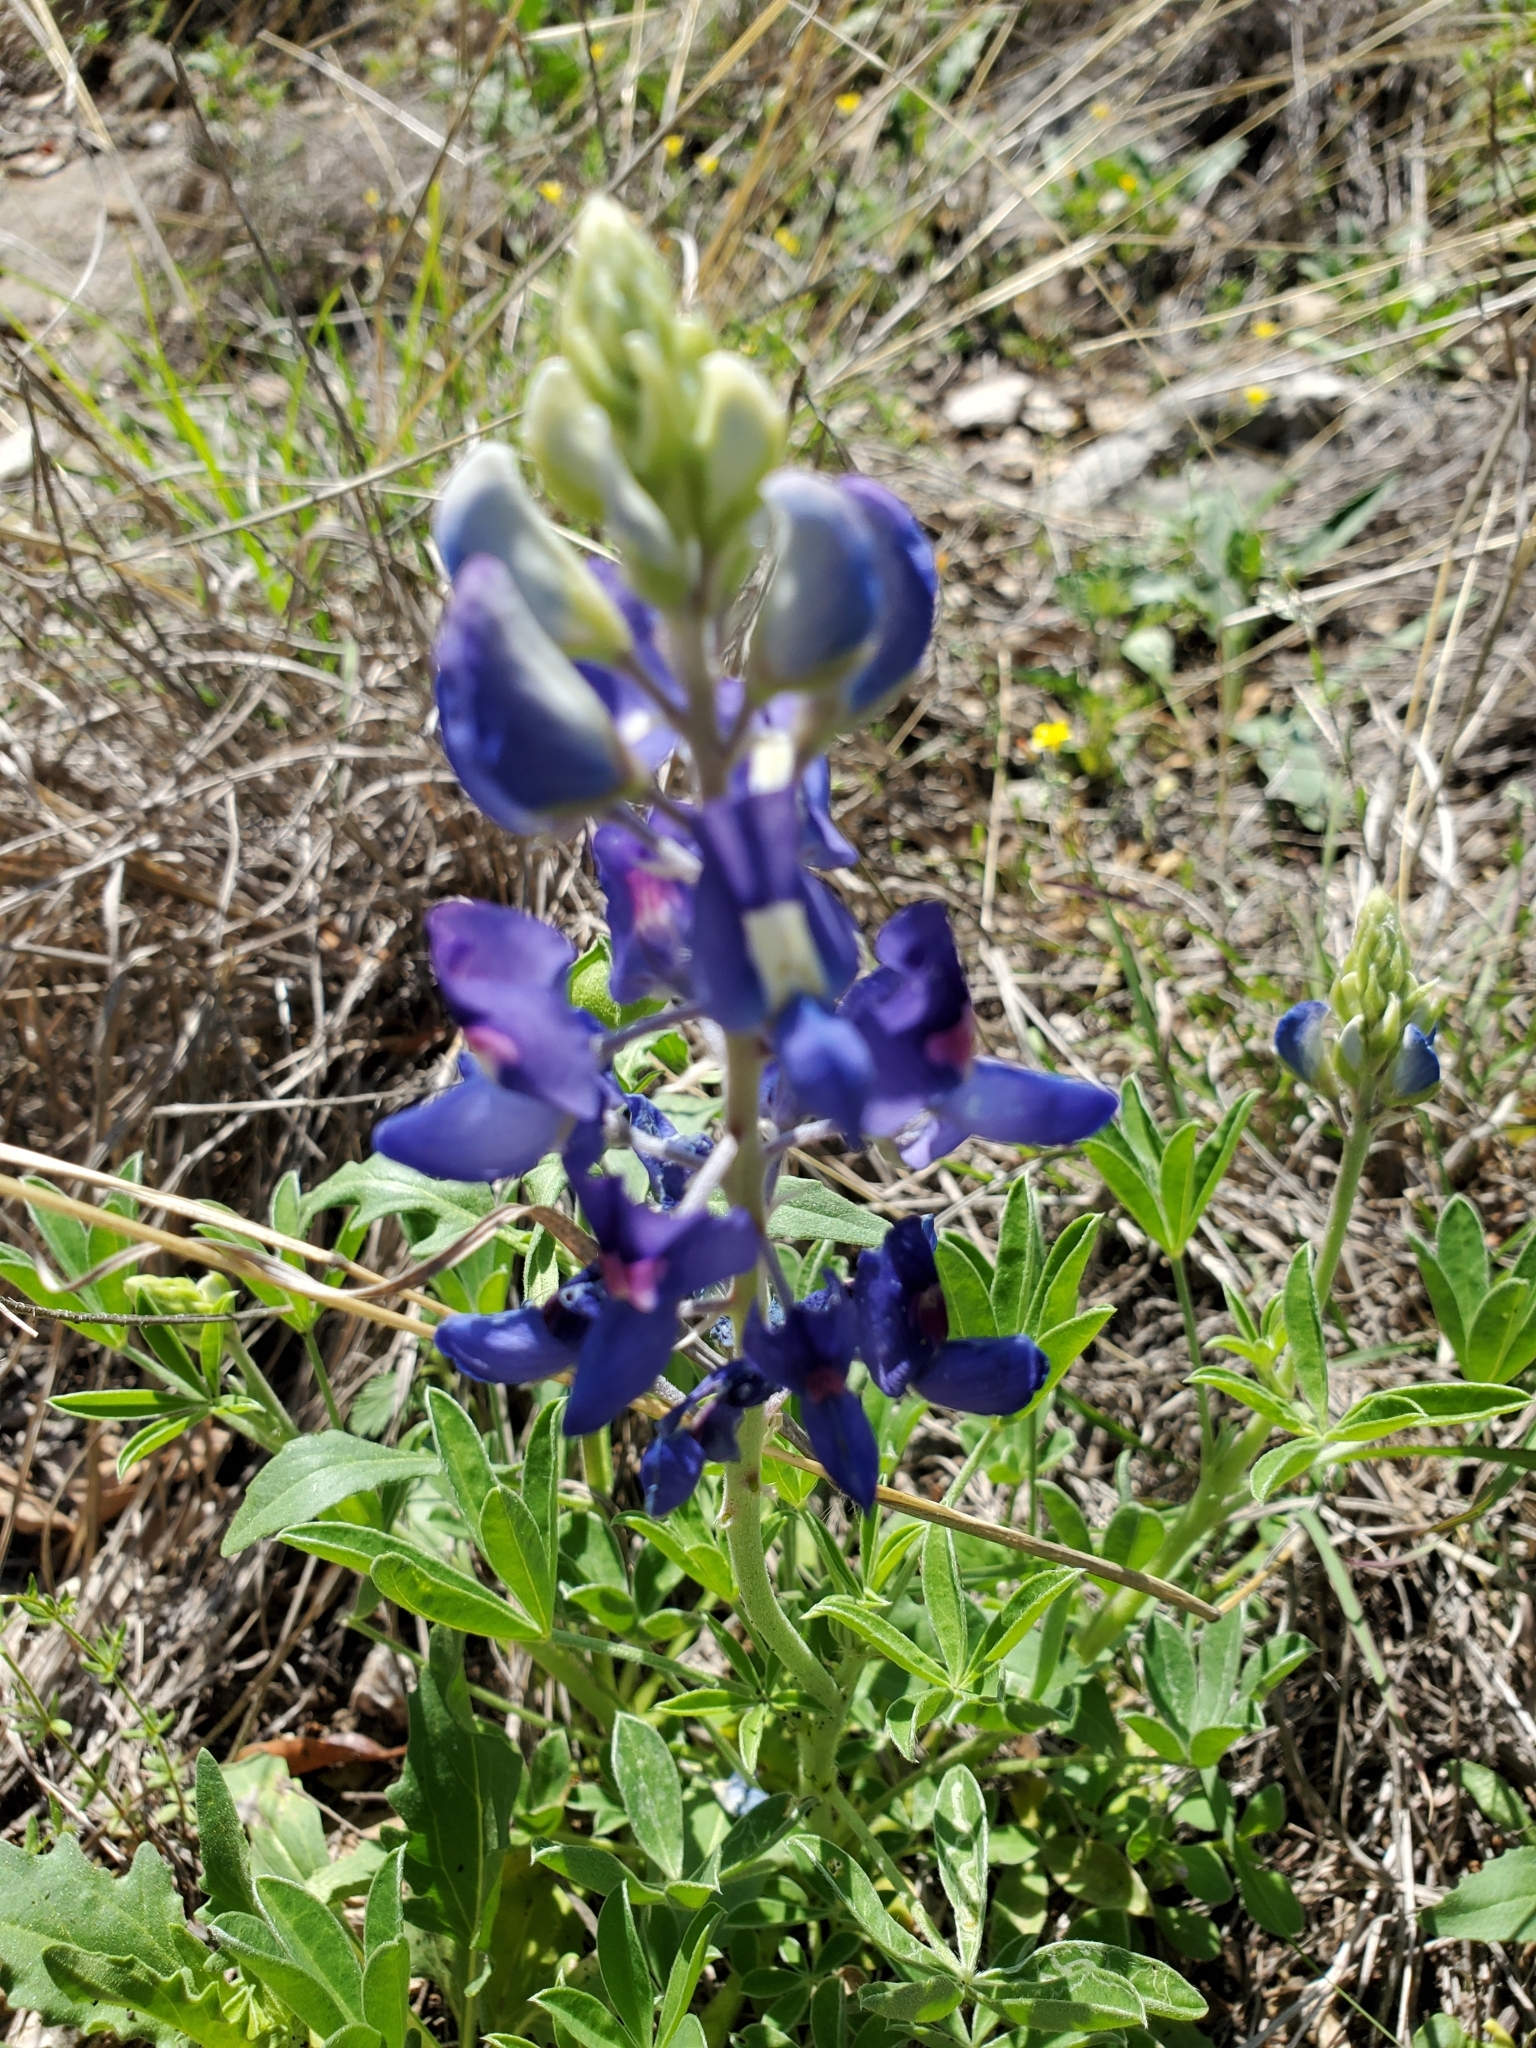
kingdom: Plantae
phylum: Tracheophyta
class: Magnoliopsida
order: Fabales
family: Fabaceae
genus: Lupinus
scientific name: Lupinus texensis
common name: Texas bluebonnet
